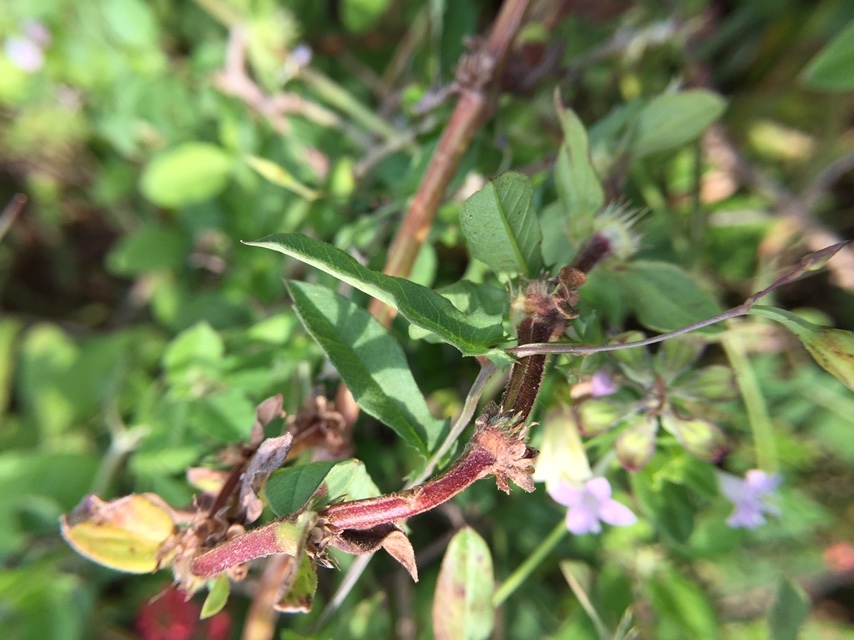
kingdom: Plantae
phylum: Tracheophyta
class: Magnoliopsida
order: Solanales
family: Convolvulaceae
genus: Xenostegia
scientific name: Xenostegia tridentata
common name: African morningvine
